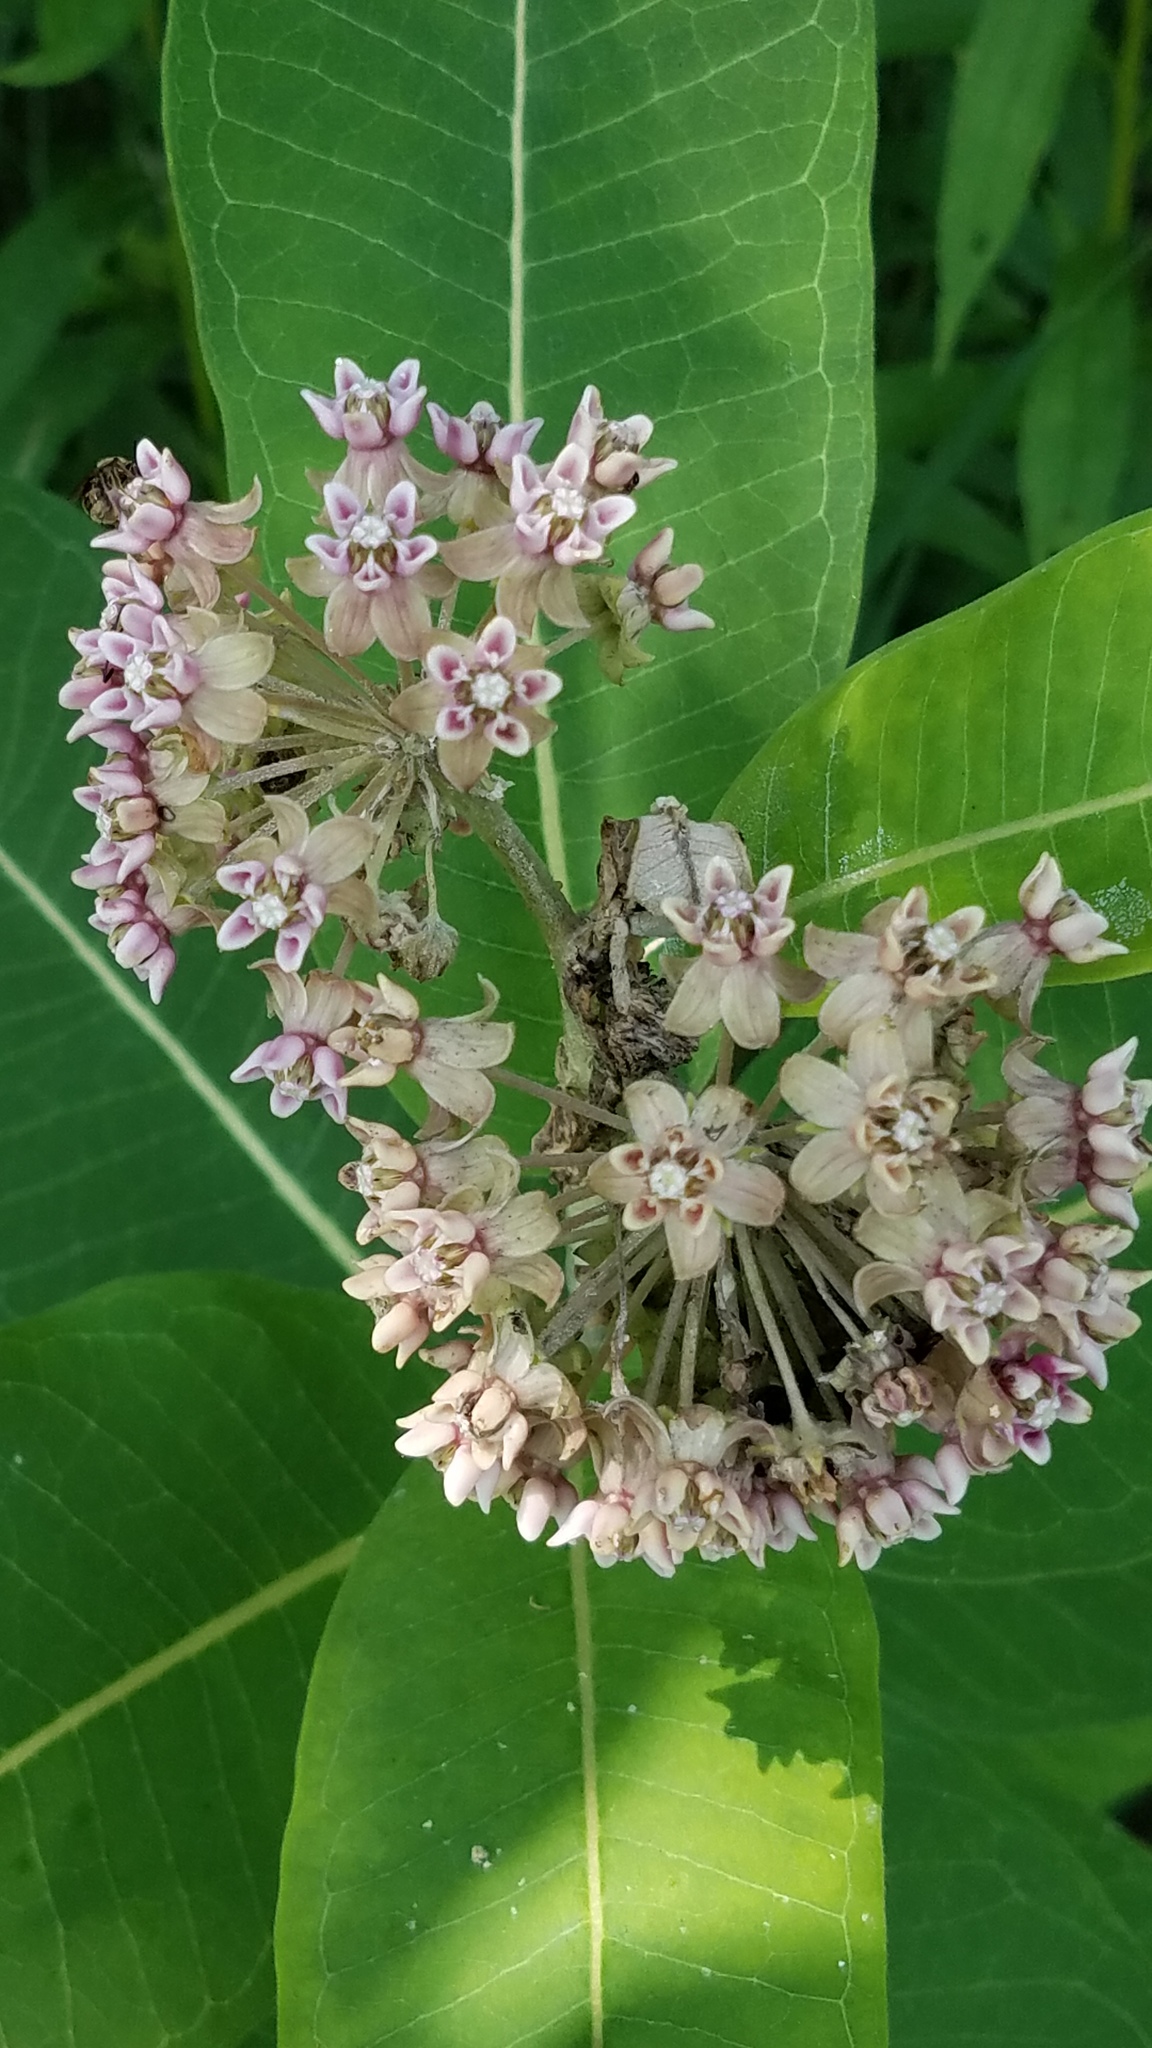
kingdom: Plantae
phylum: Tracheophyta
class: Magnoliopsida
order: Gentianales
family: Apocynaceae
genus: Asclepias
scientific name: Asclepias syriaca
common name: Common milkweed
